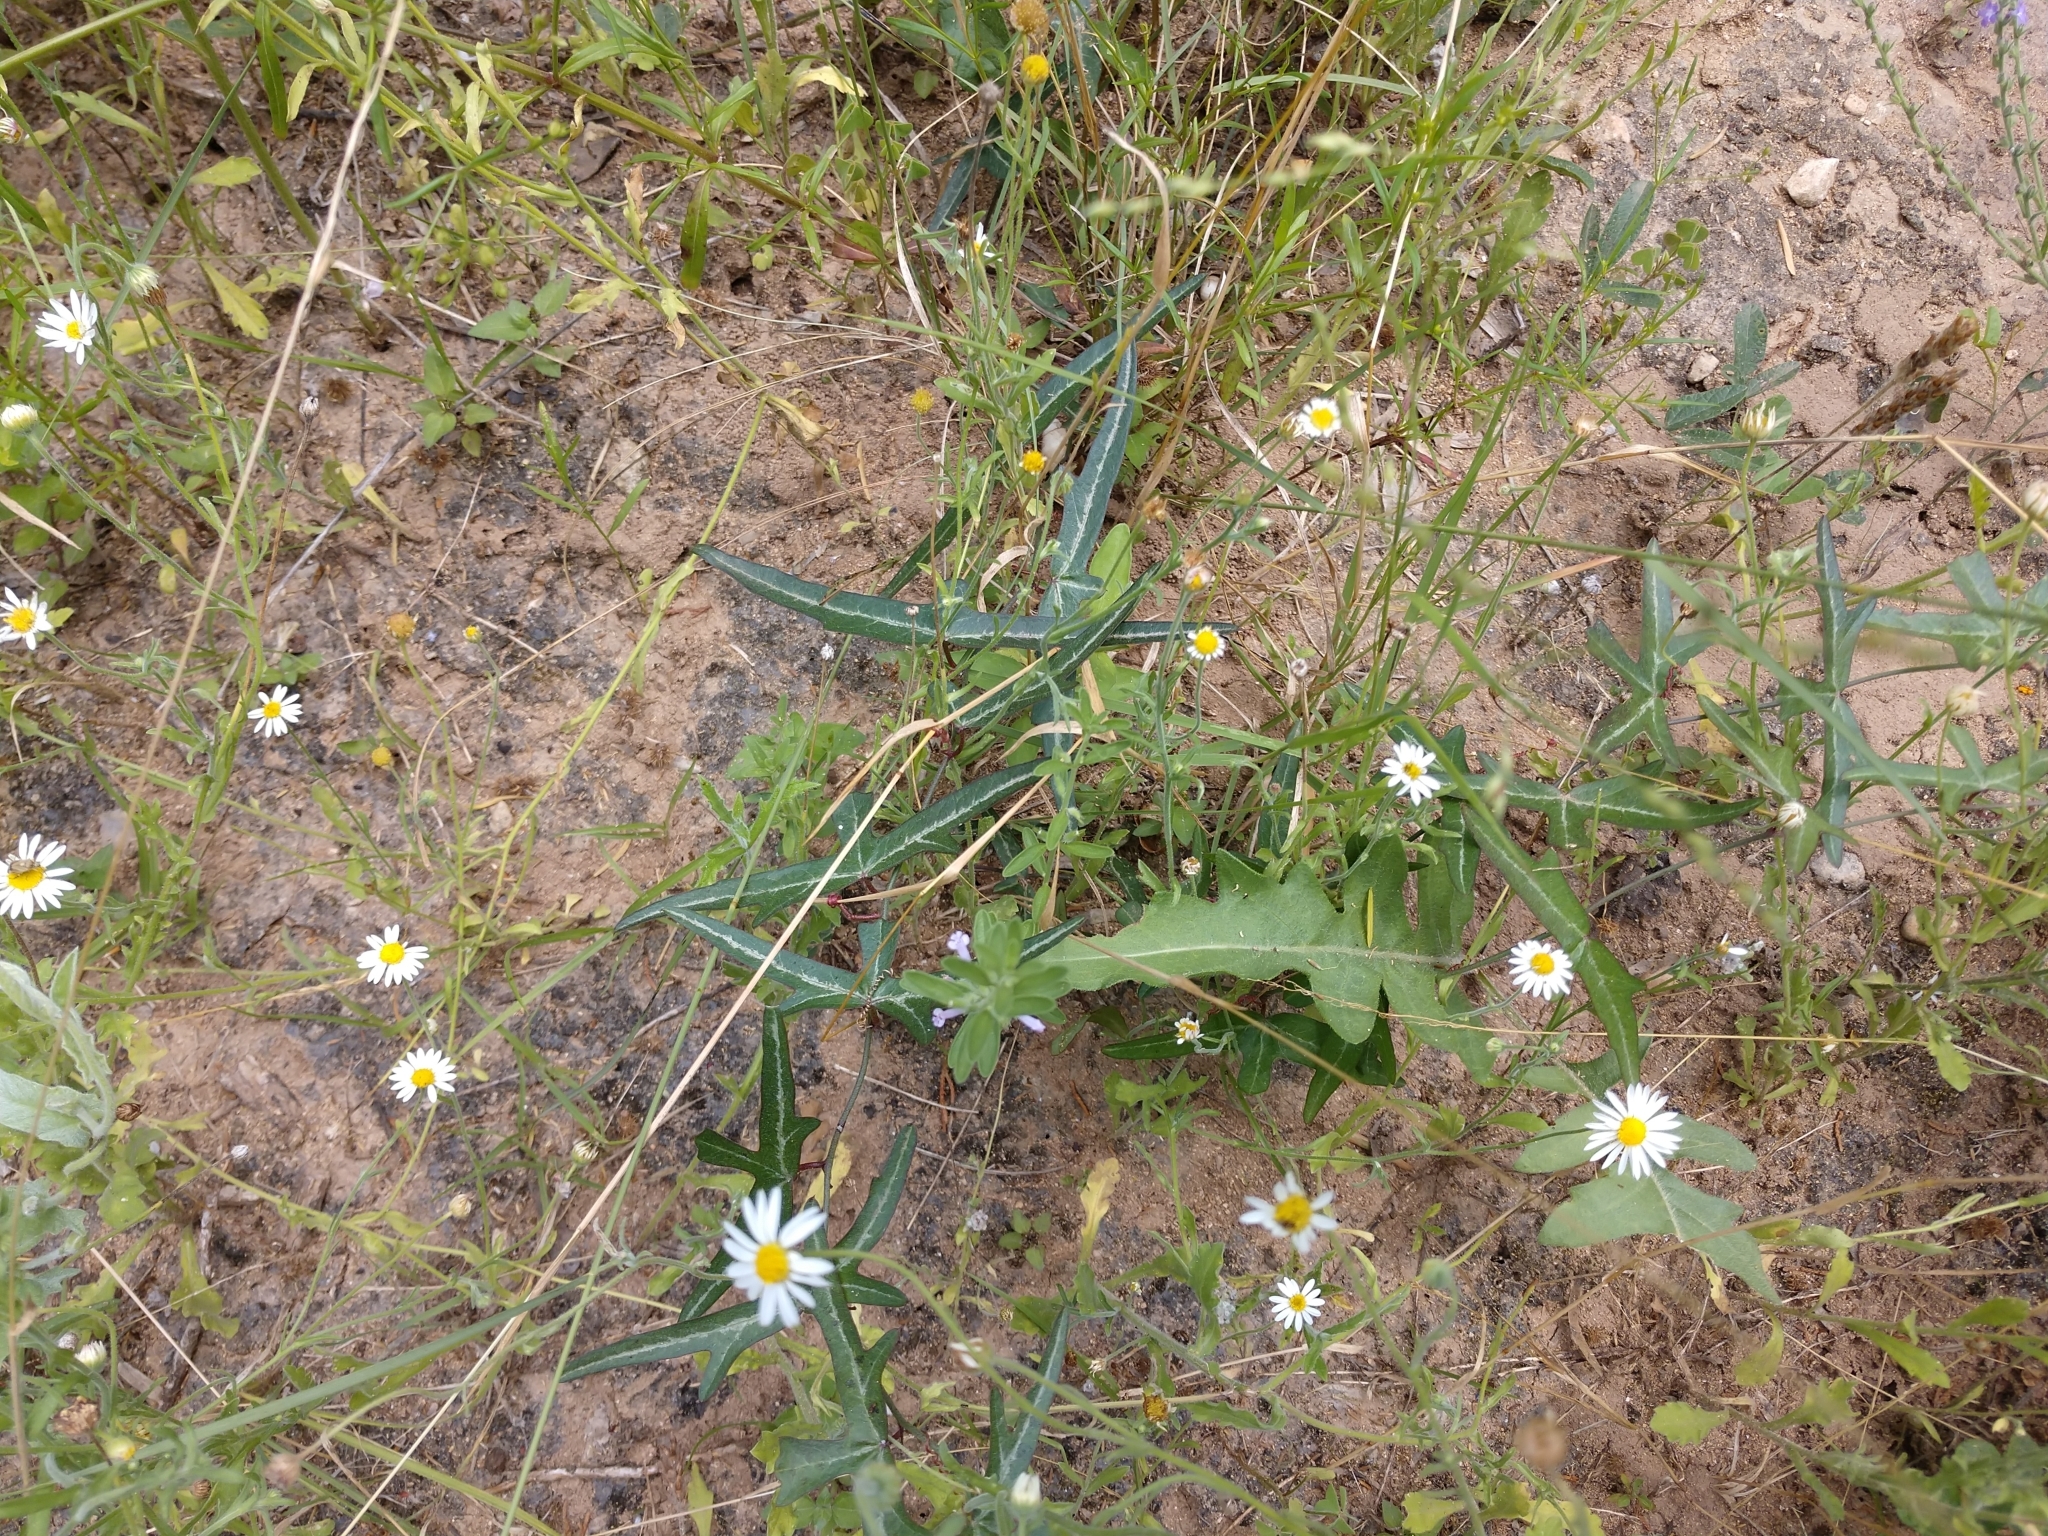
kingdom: Plantae
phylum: Tracheophyta
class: Magnoliopsida
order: Malpighiales
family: Passifloraceae
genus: Passiflora
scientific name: Passiflora tenuiloba
